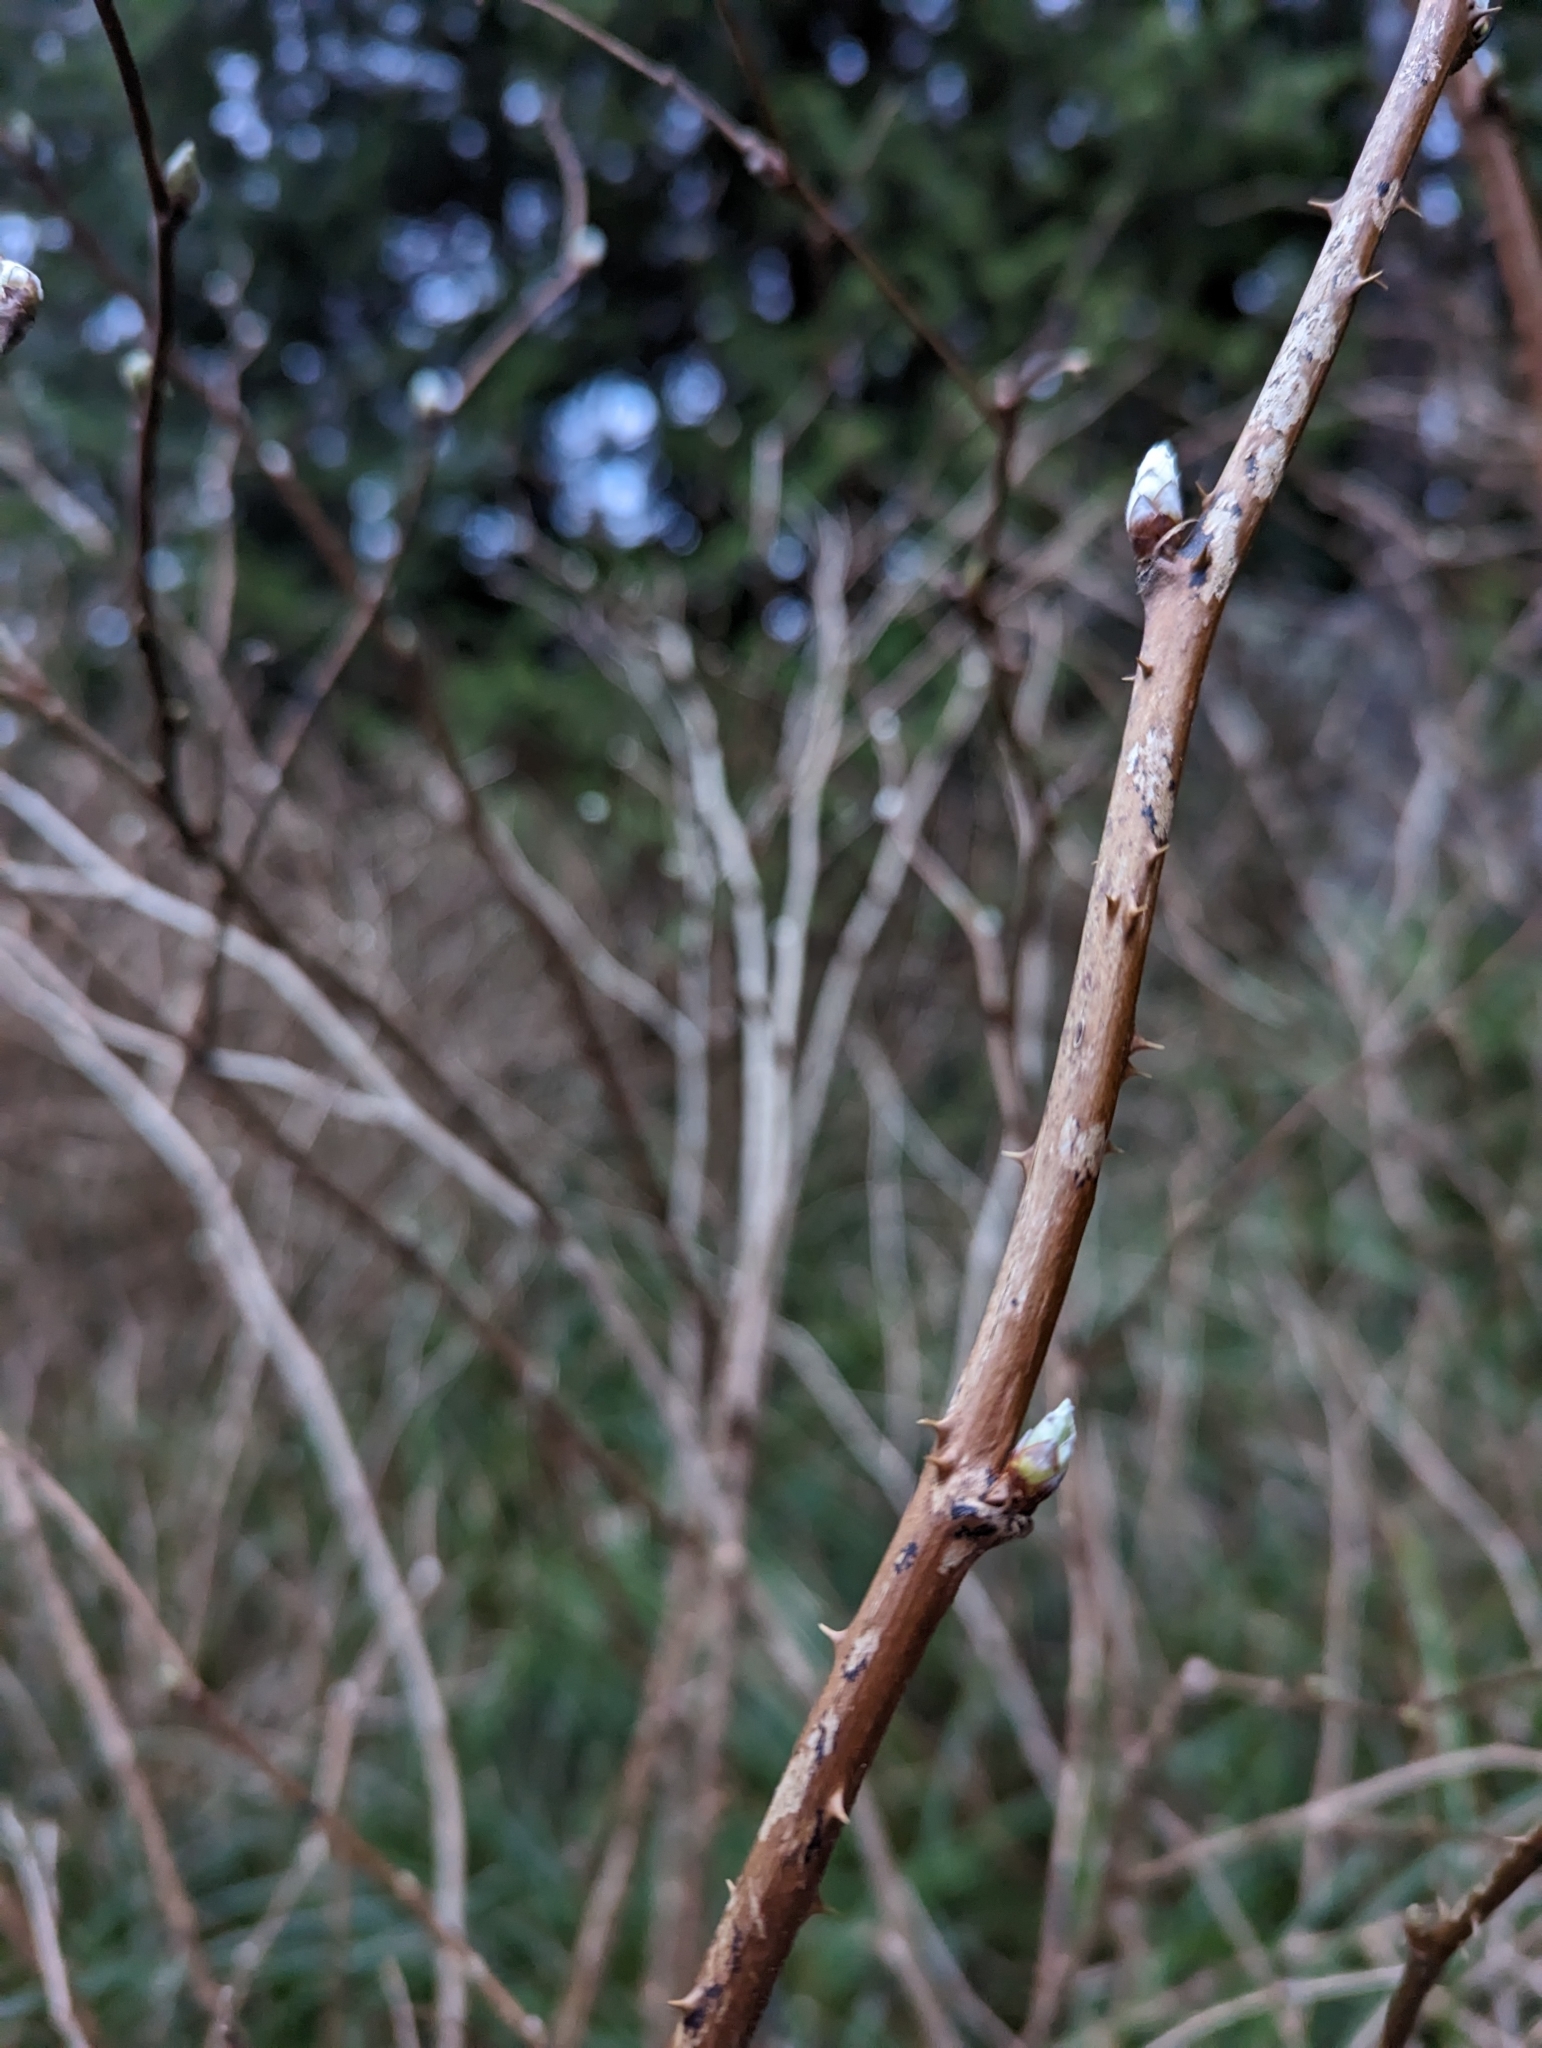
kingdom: Plantae
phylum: Tracheophyta
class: Magnoliopsida
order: Rosales
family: Rosaceae
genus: Rubus
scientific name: Rubus spectabilis
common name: Salmonberry
